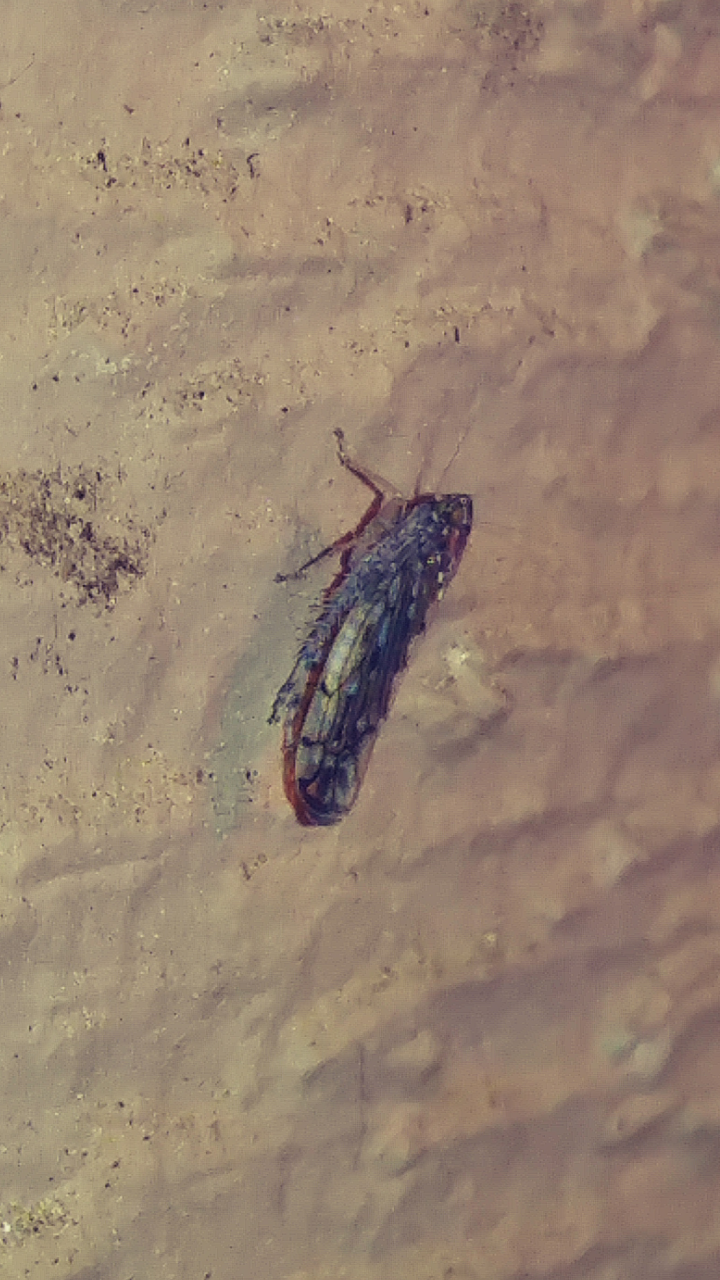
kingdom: Animalia
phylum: Arthropoda
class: Insecta
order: Hemiptera
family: Cicadellidae
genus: Osbornellus
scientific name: Osbornellus clarus
